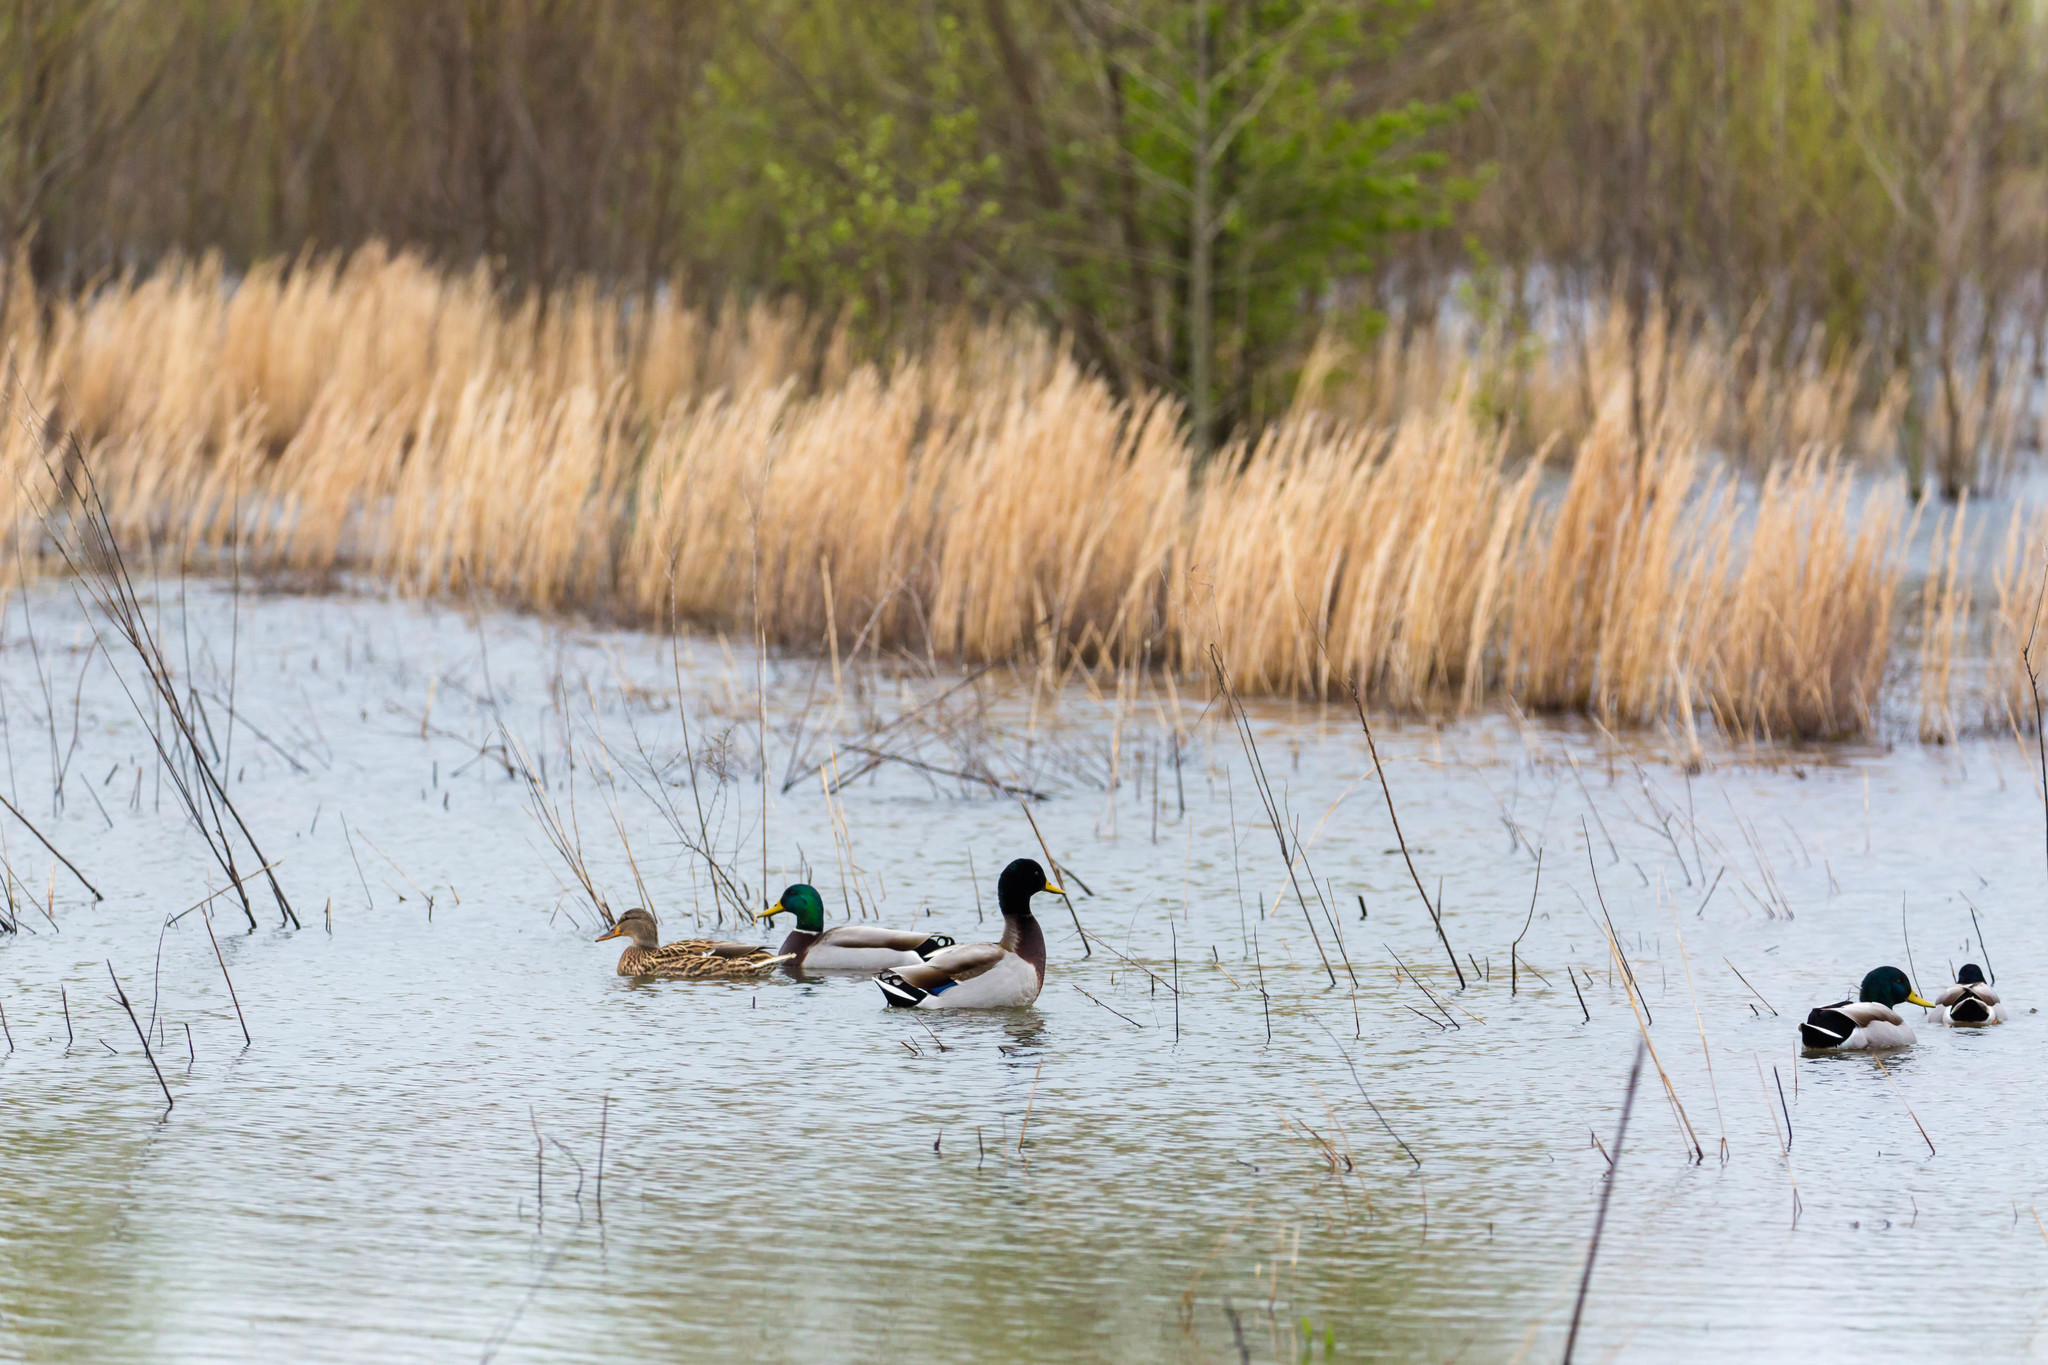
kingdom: Animalia
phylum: Chordata
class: Aves
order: Anseriformes
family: Anatidae
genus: Anas
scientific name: Anas platyrhynchos
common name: Mallard
